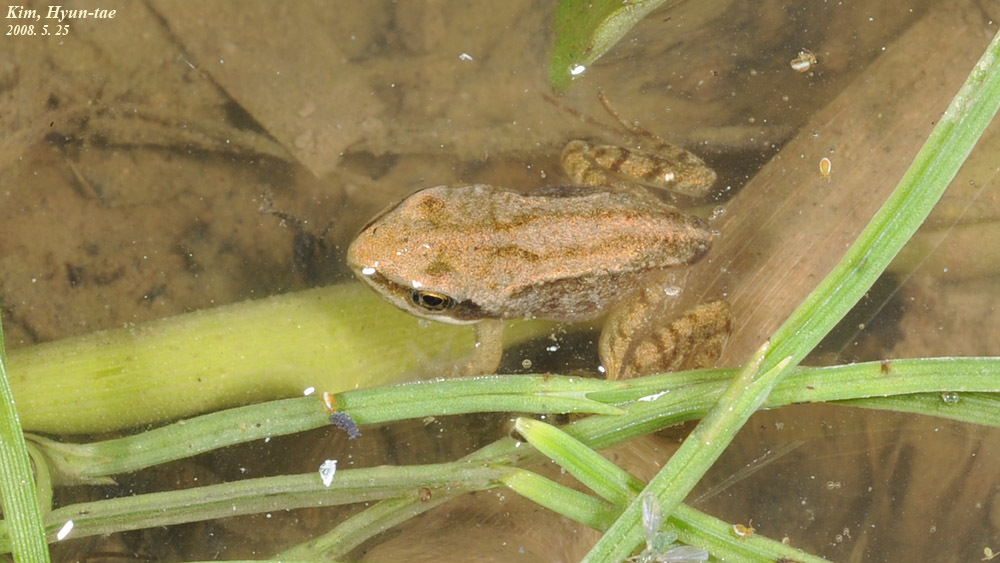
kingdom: Animalia
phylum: Chordata
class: Amphibia
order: Anura
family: Ranidae
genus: Rana
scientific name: Rana coreana
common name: Korean brown frog
